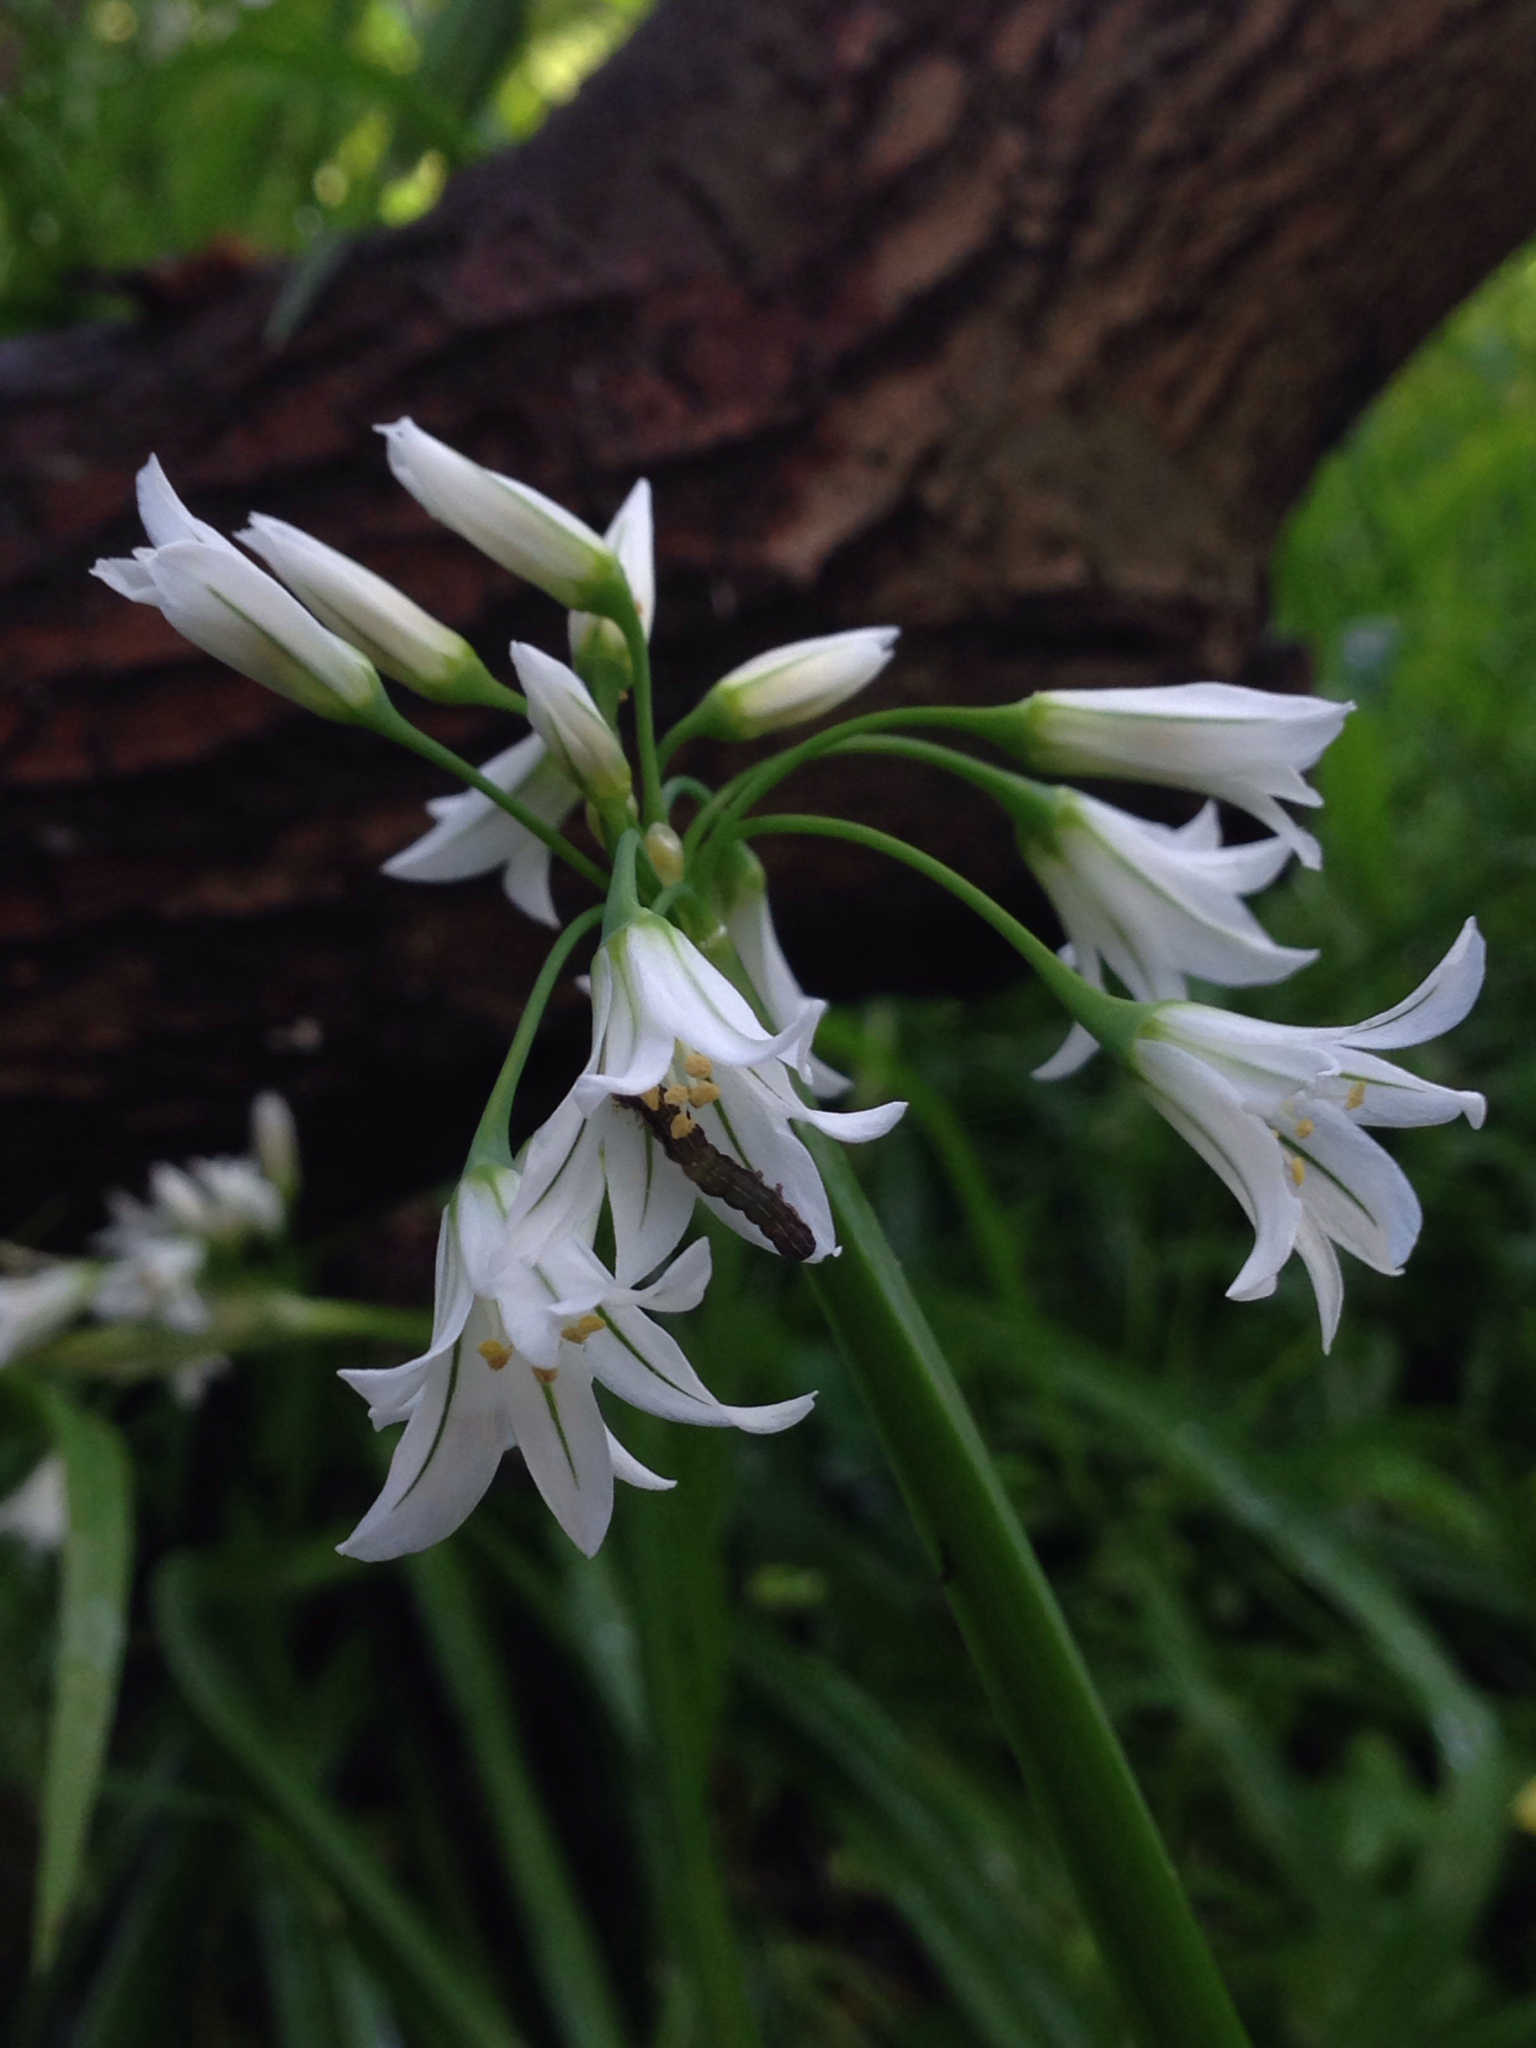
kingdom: Plantae
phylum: Tracheophyta
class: Liliopsida
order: Asparagales
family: Amaryllidaceae
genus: Allium
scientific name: Allium triquetrum
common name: Three-cornered garlic
